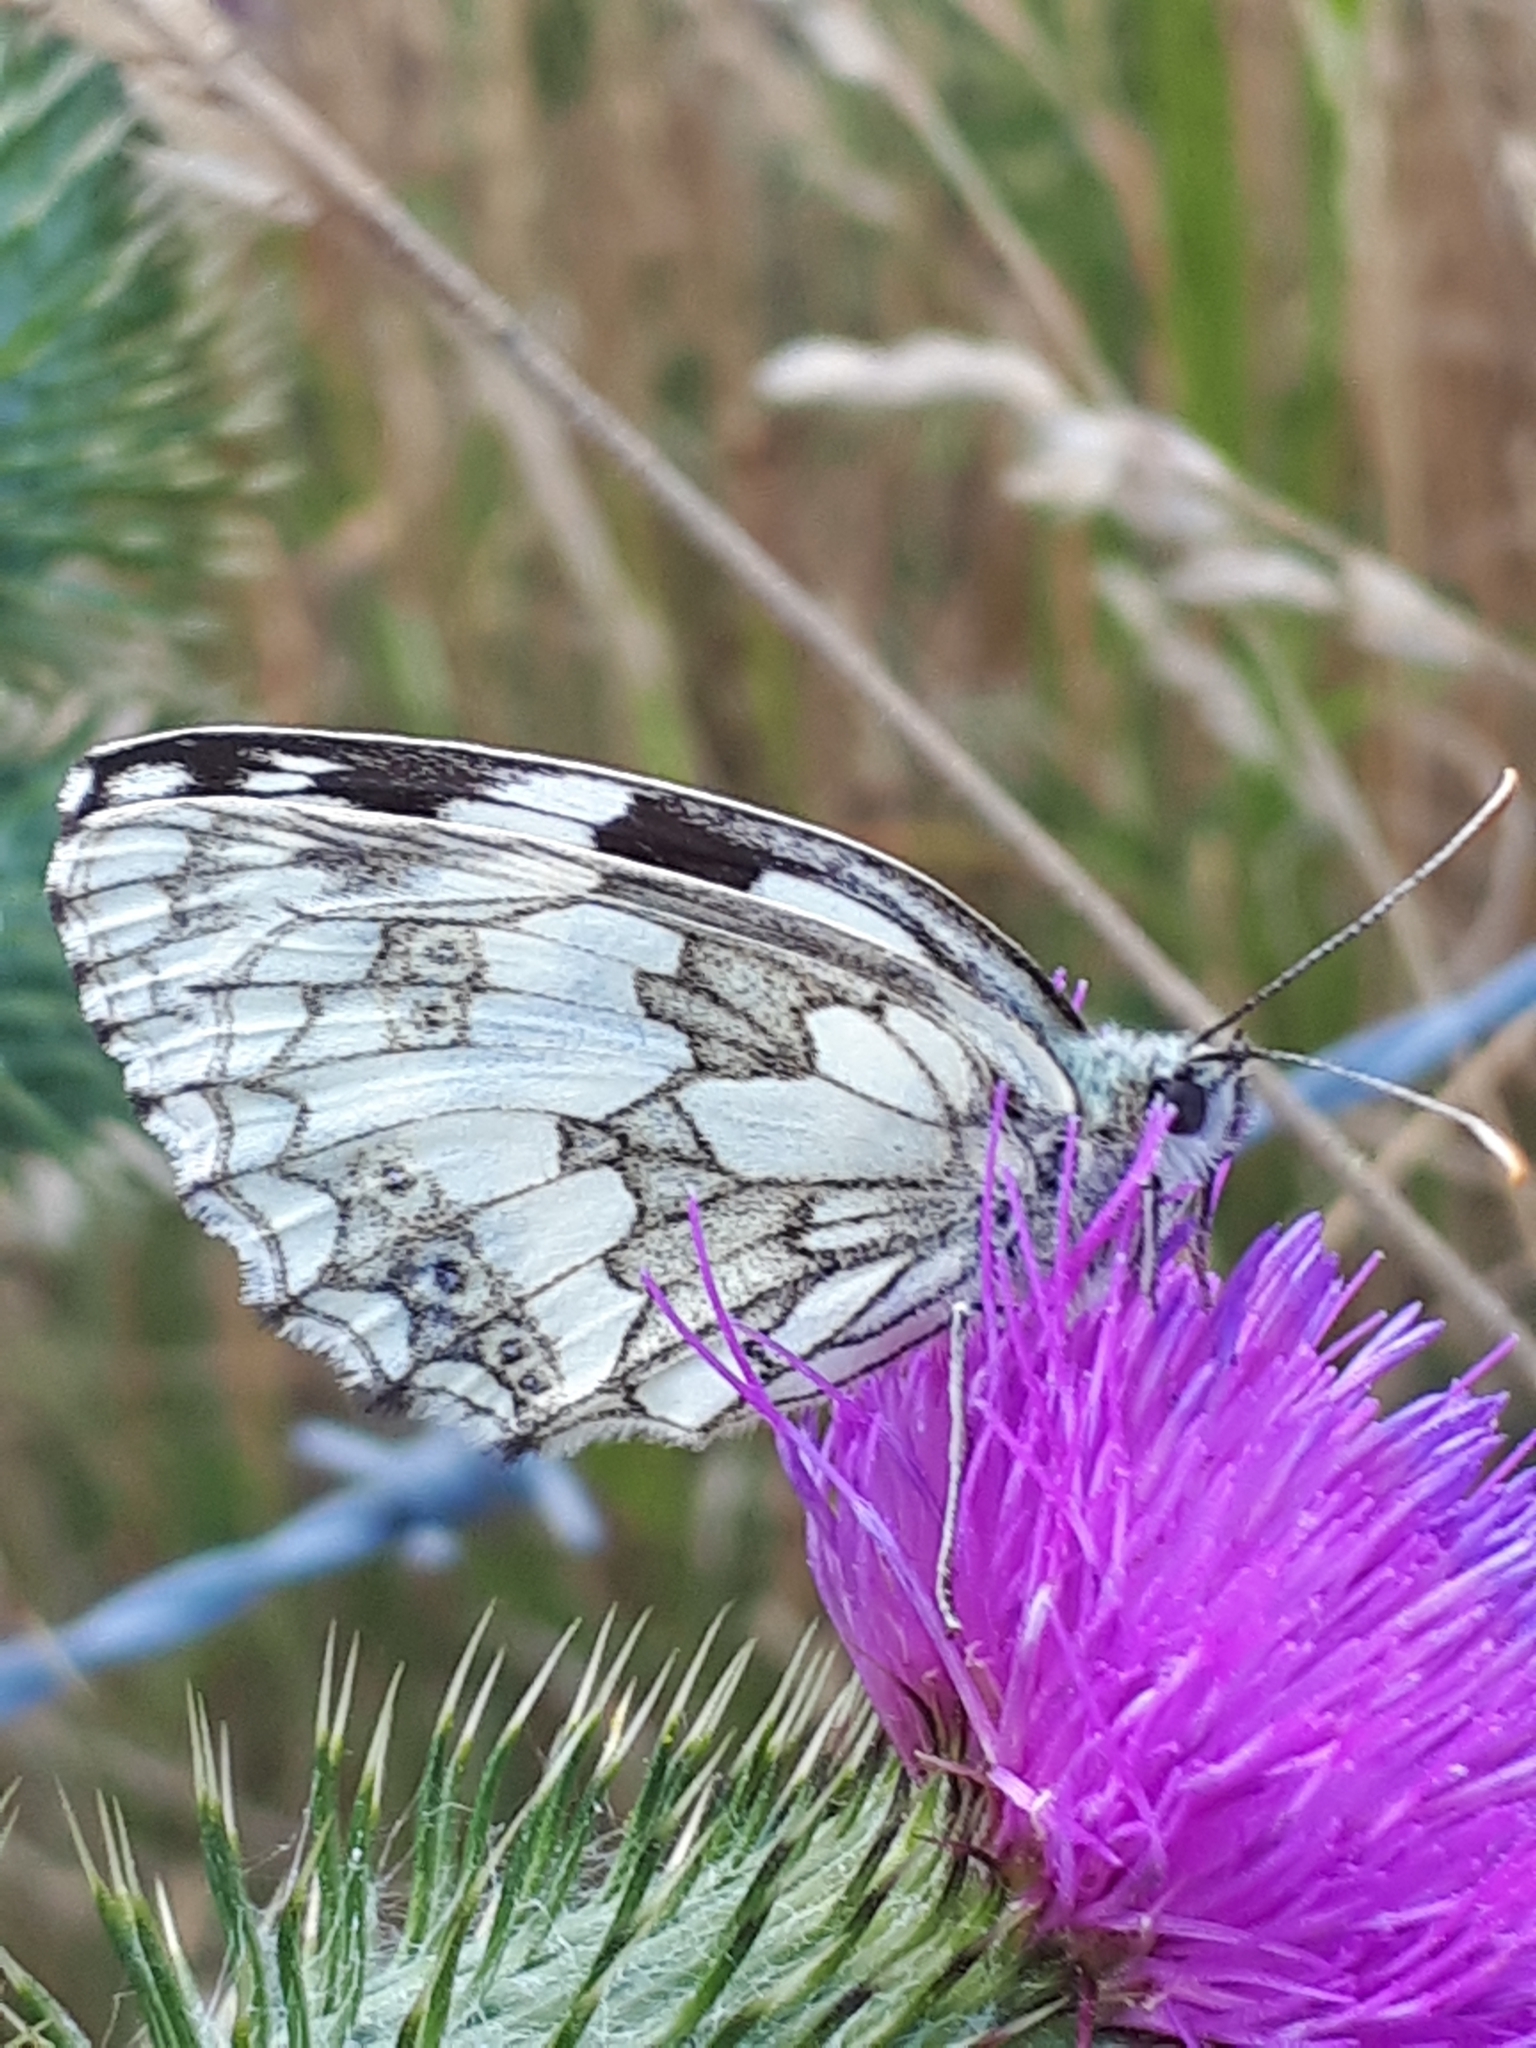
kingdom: Animalia
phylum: Arthropoda
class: Insecta
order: Lepidoptera
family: Nymphalidae
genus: Melanargia
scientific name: Melanargia galathea
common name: Marbled white
